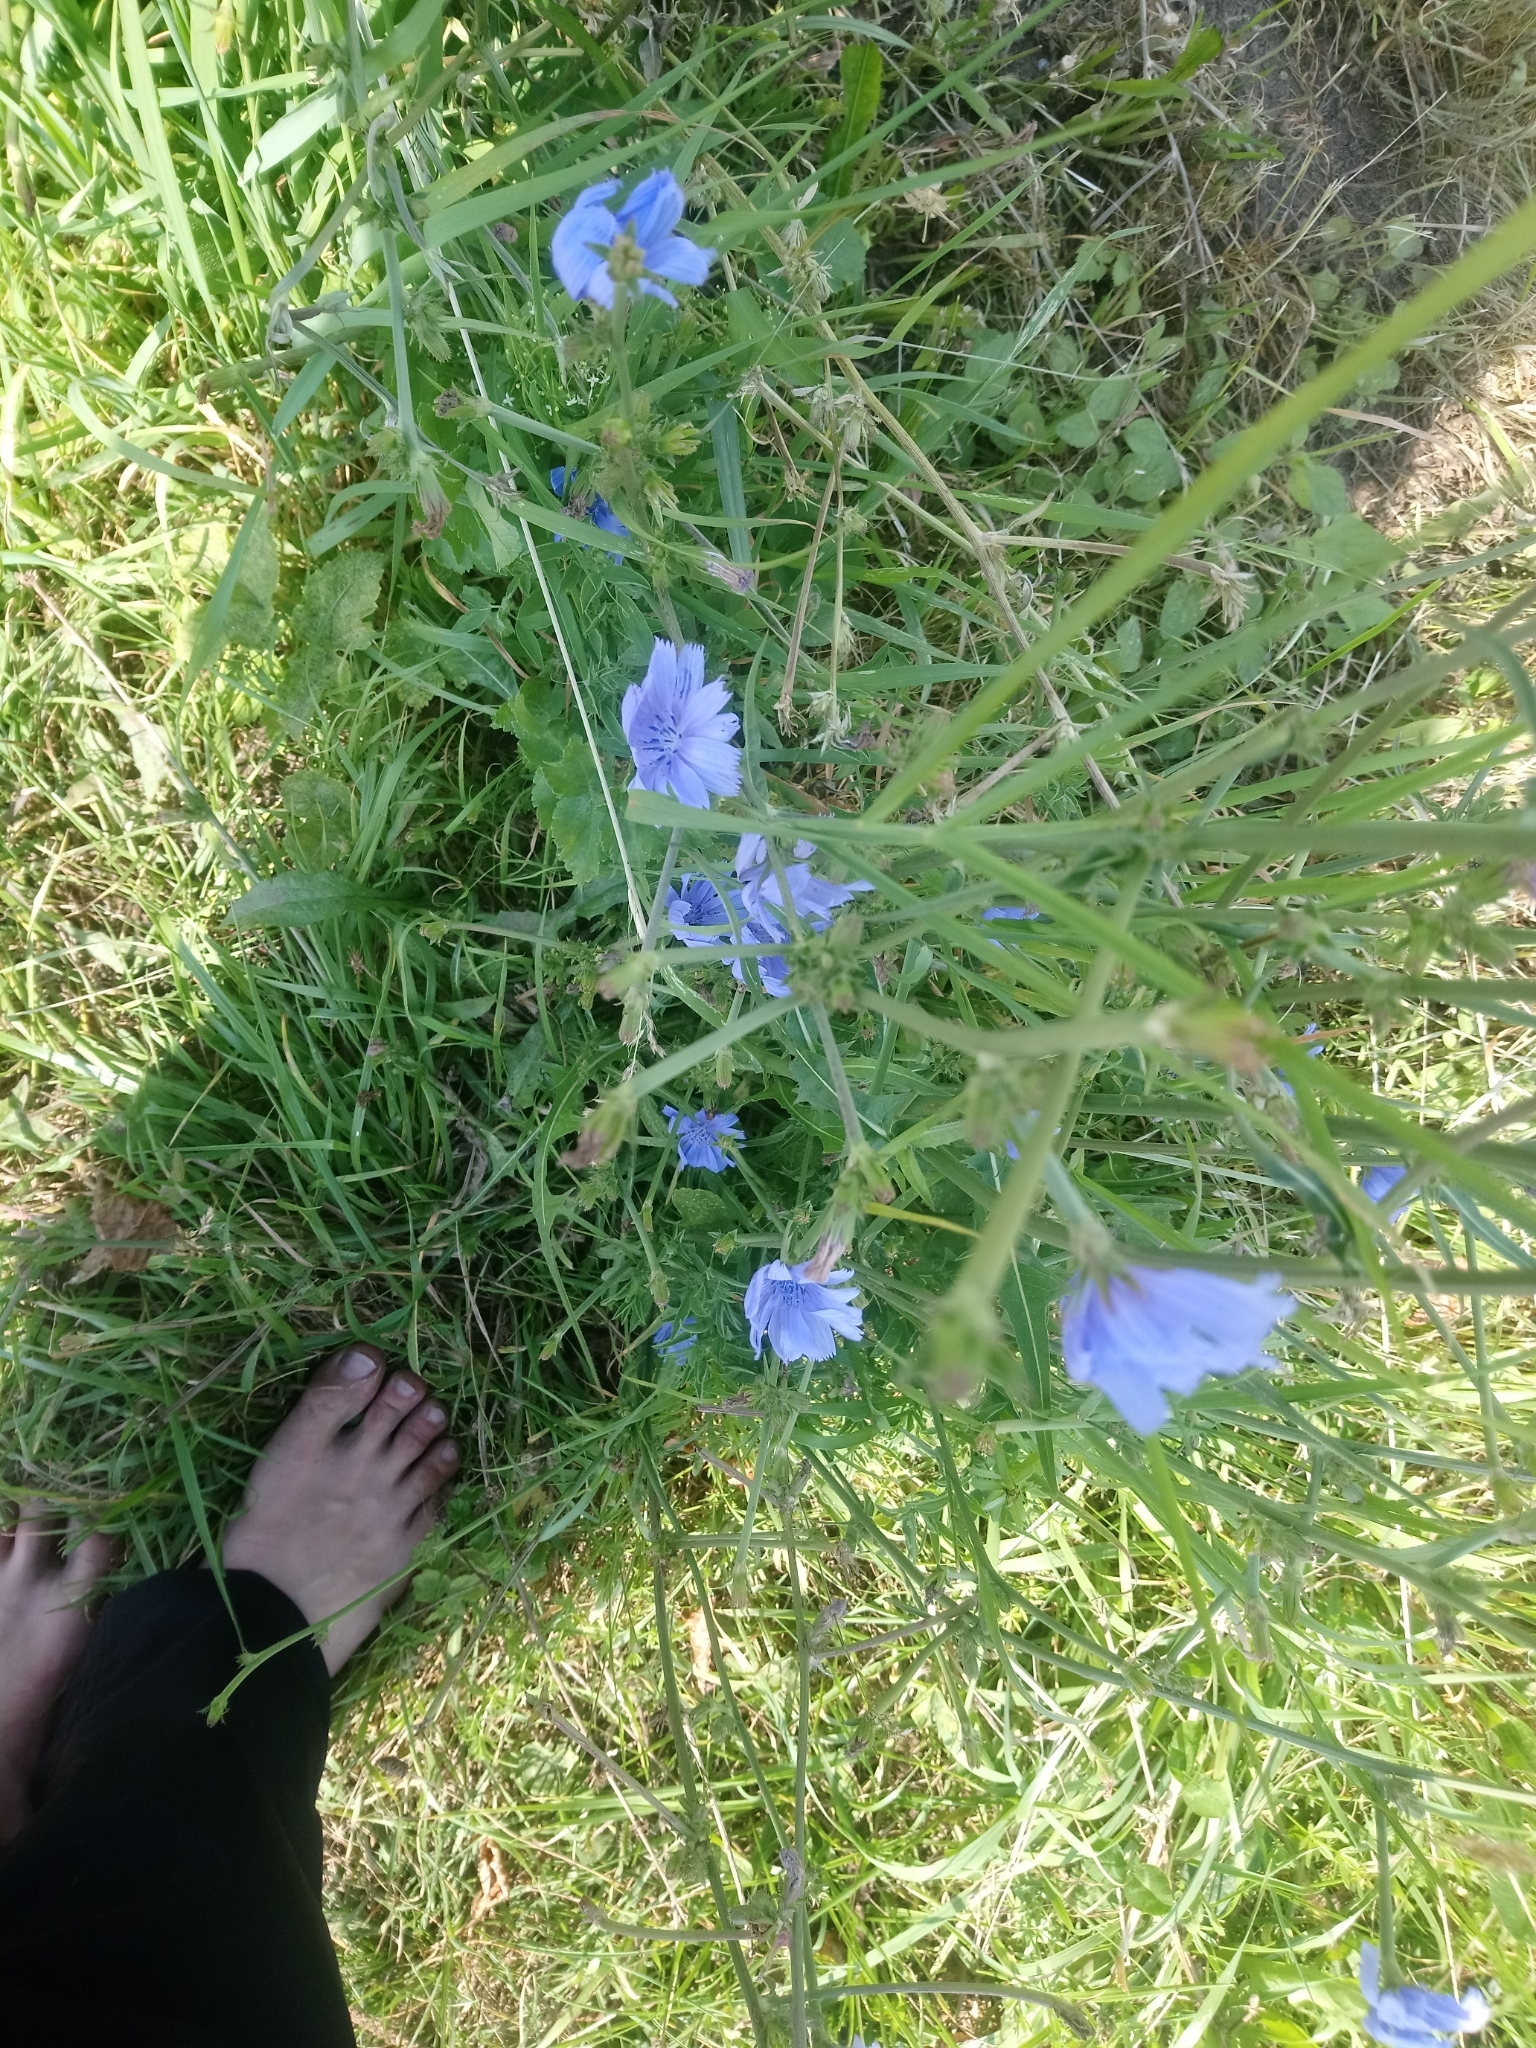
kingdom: Plantae
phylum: Tracheophyta
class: Magnoliopsida
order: Asterales
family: Asteraceae
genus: Cichorium
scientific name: Cichorium intybus
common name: Chicory
